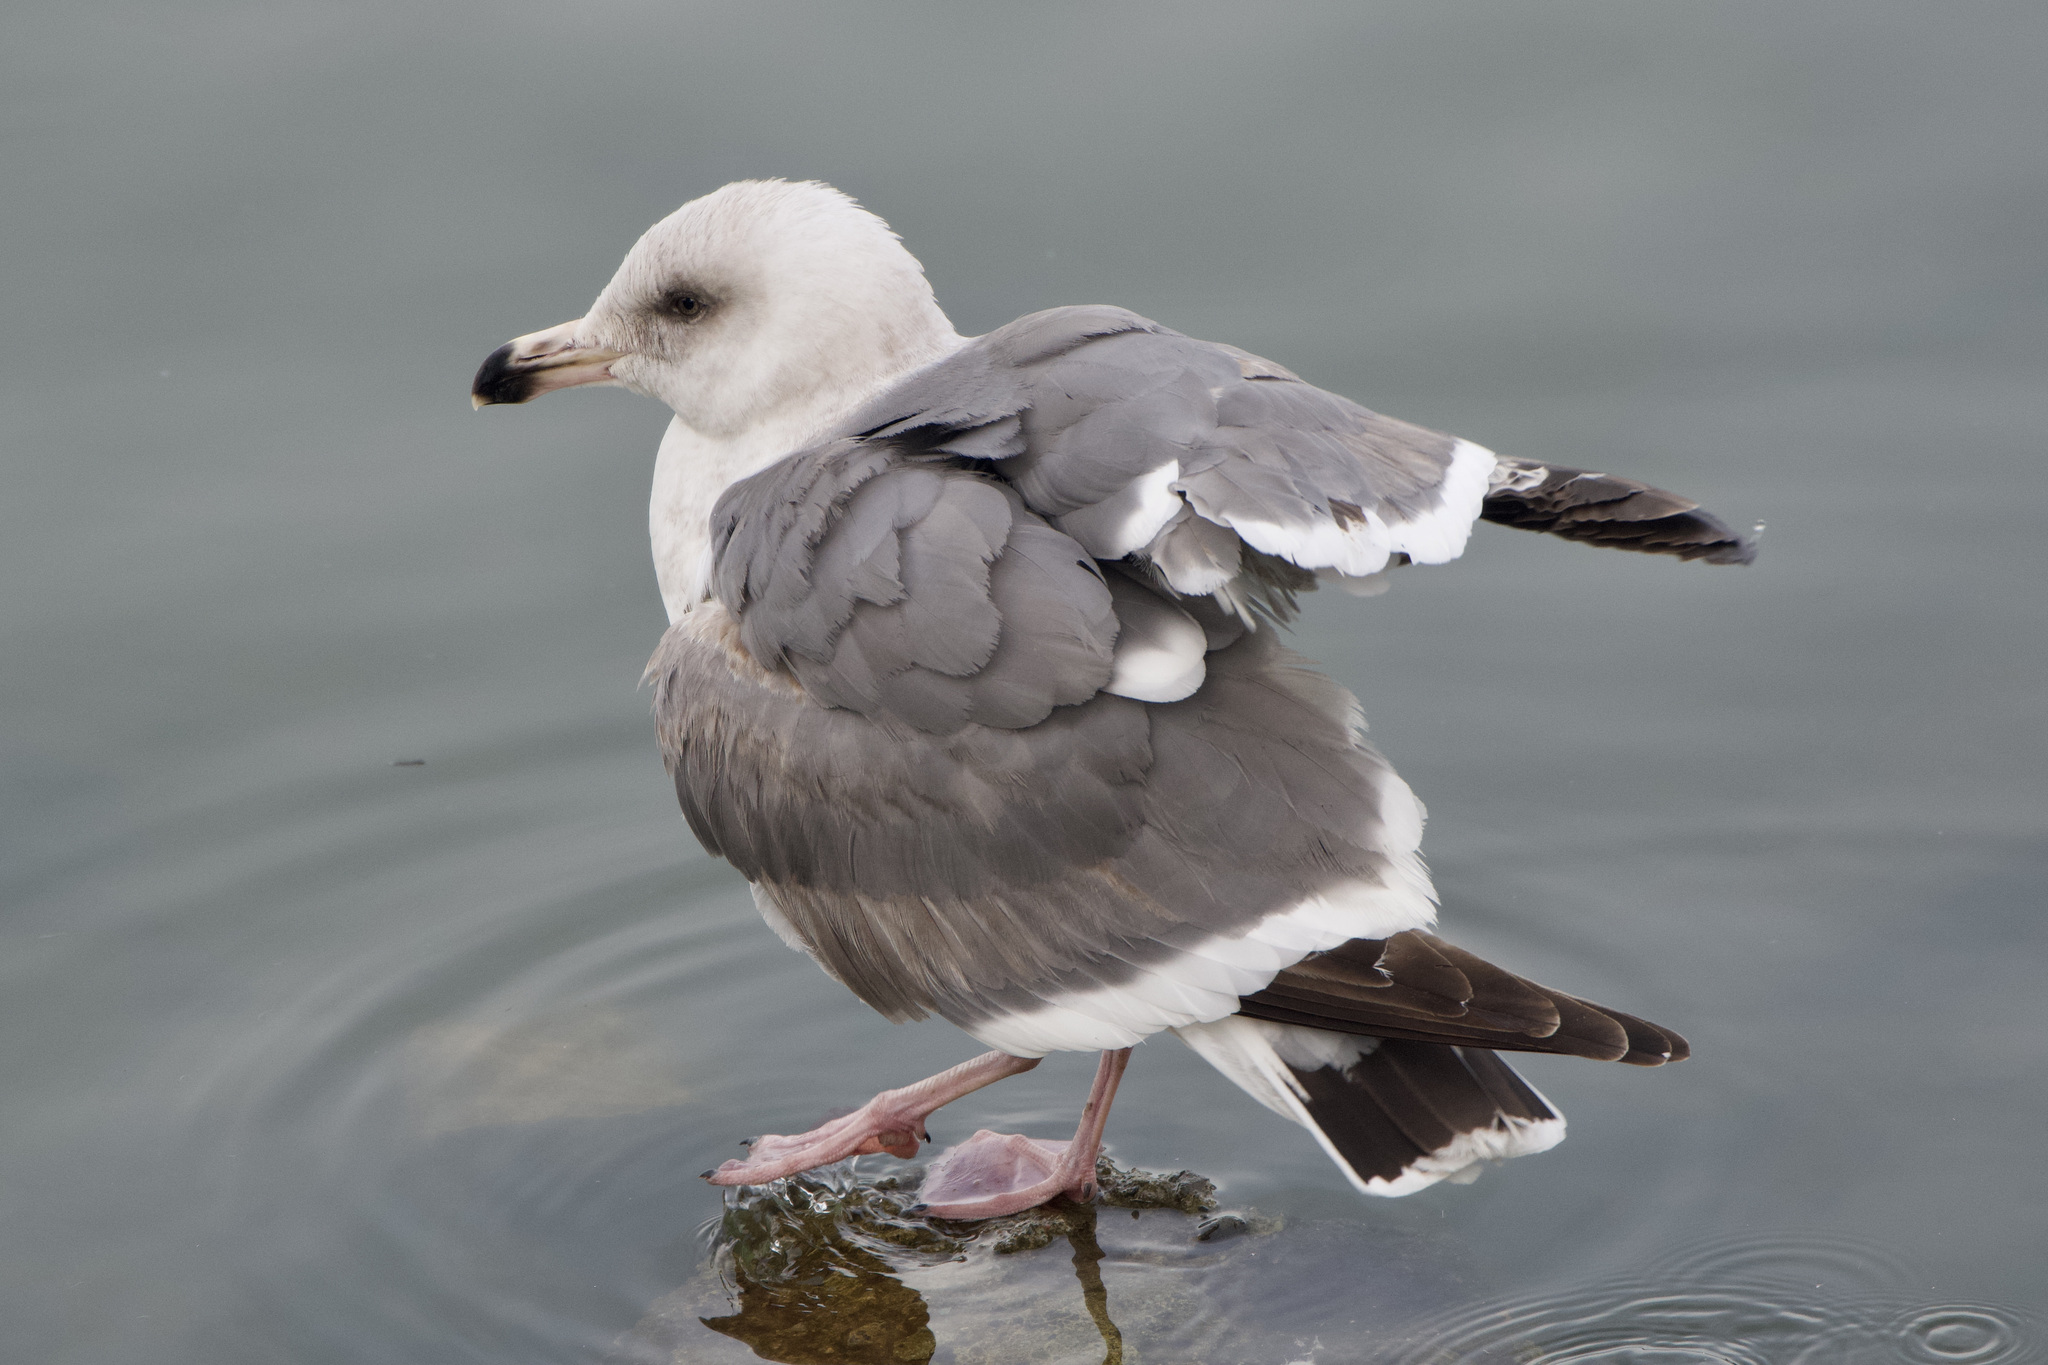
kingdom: Animalia
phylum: Chordata
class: Aves
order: Charadriiformes
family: Laridae
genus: Larus
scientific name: Larus occidentalis
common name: Western gull
